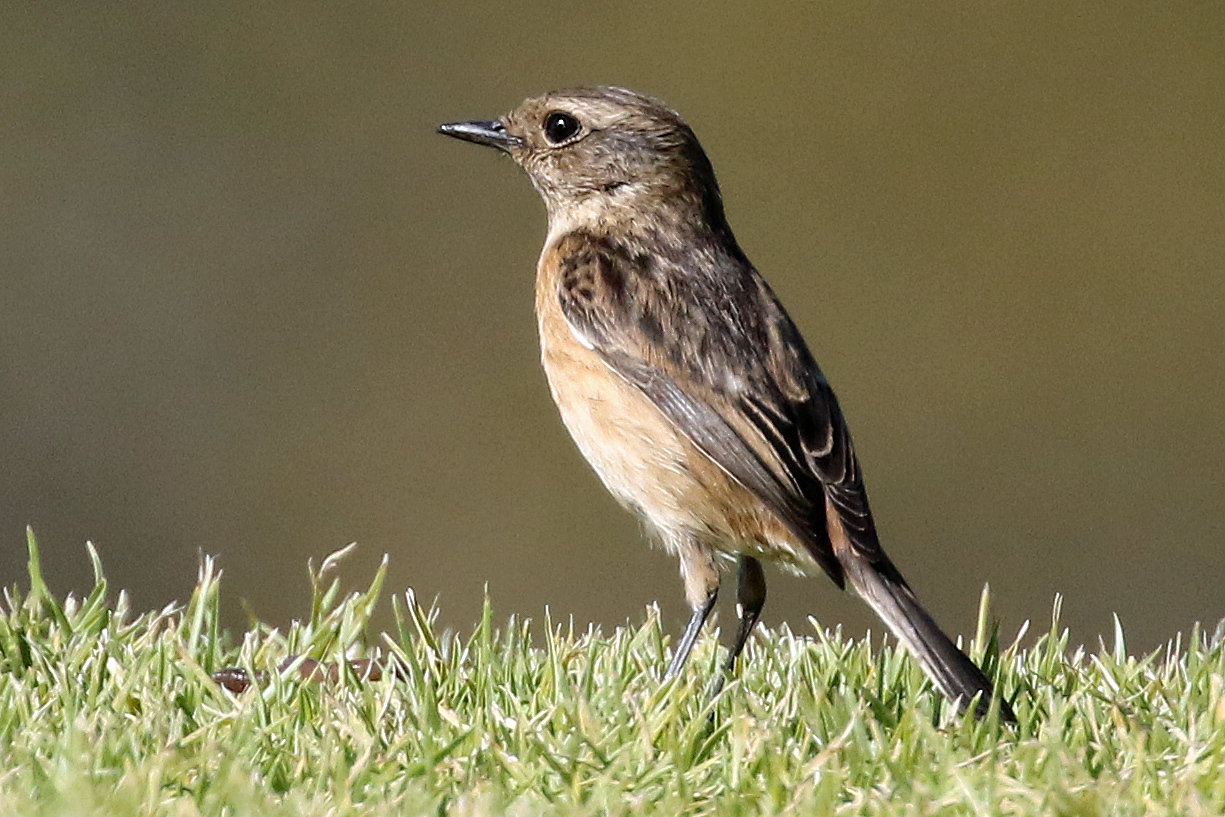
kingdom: Animalia
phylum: Chordata
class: Aves
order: Passeriformes
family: Muscicapidae
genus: Saxicola
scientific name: Saxicola rubicola
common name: European stonechat
